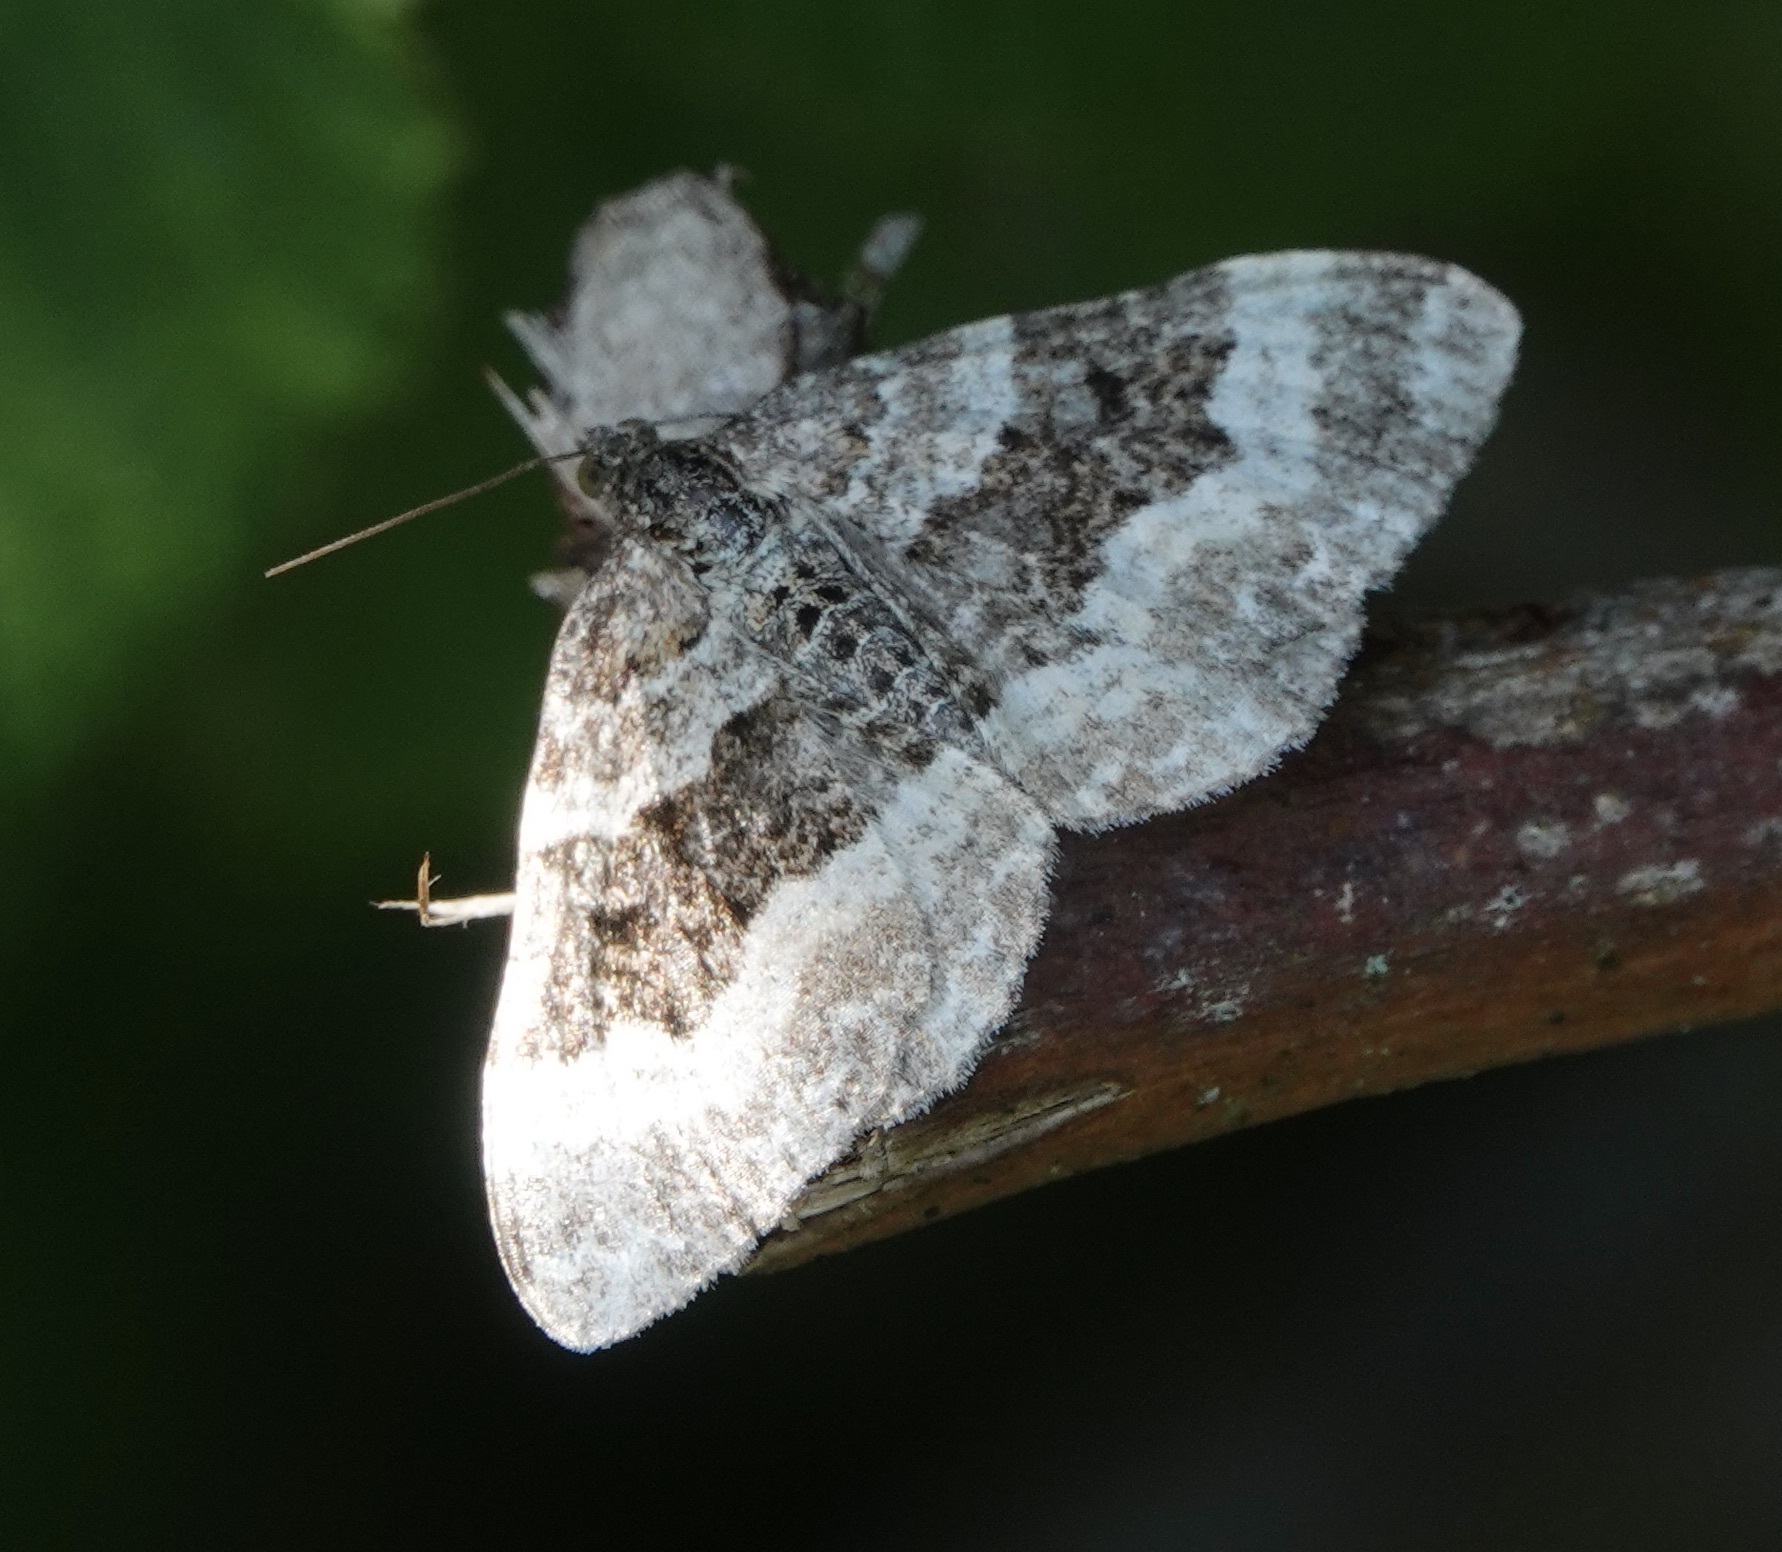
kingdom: Animalia
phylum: Arthropoda
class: Insecta
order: Lepidoptera
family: Geometridae
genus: Epirrhoe
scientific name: Epirrhoe alternata
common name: Common carpet
